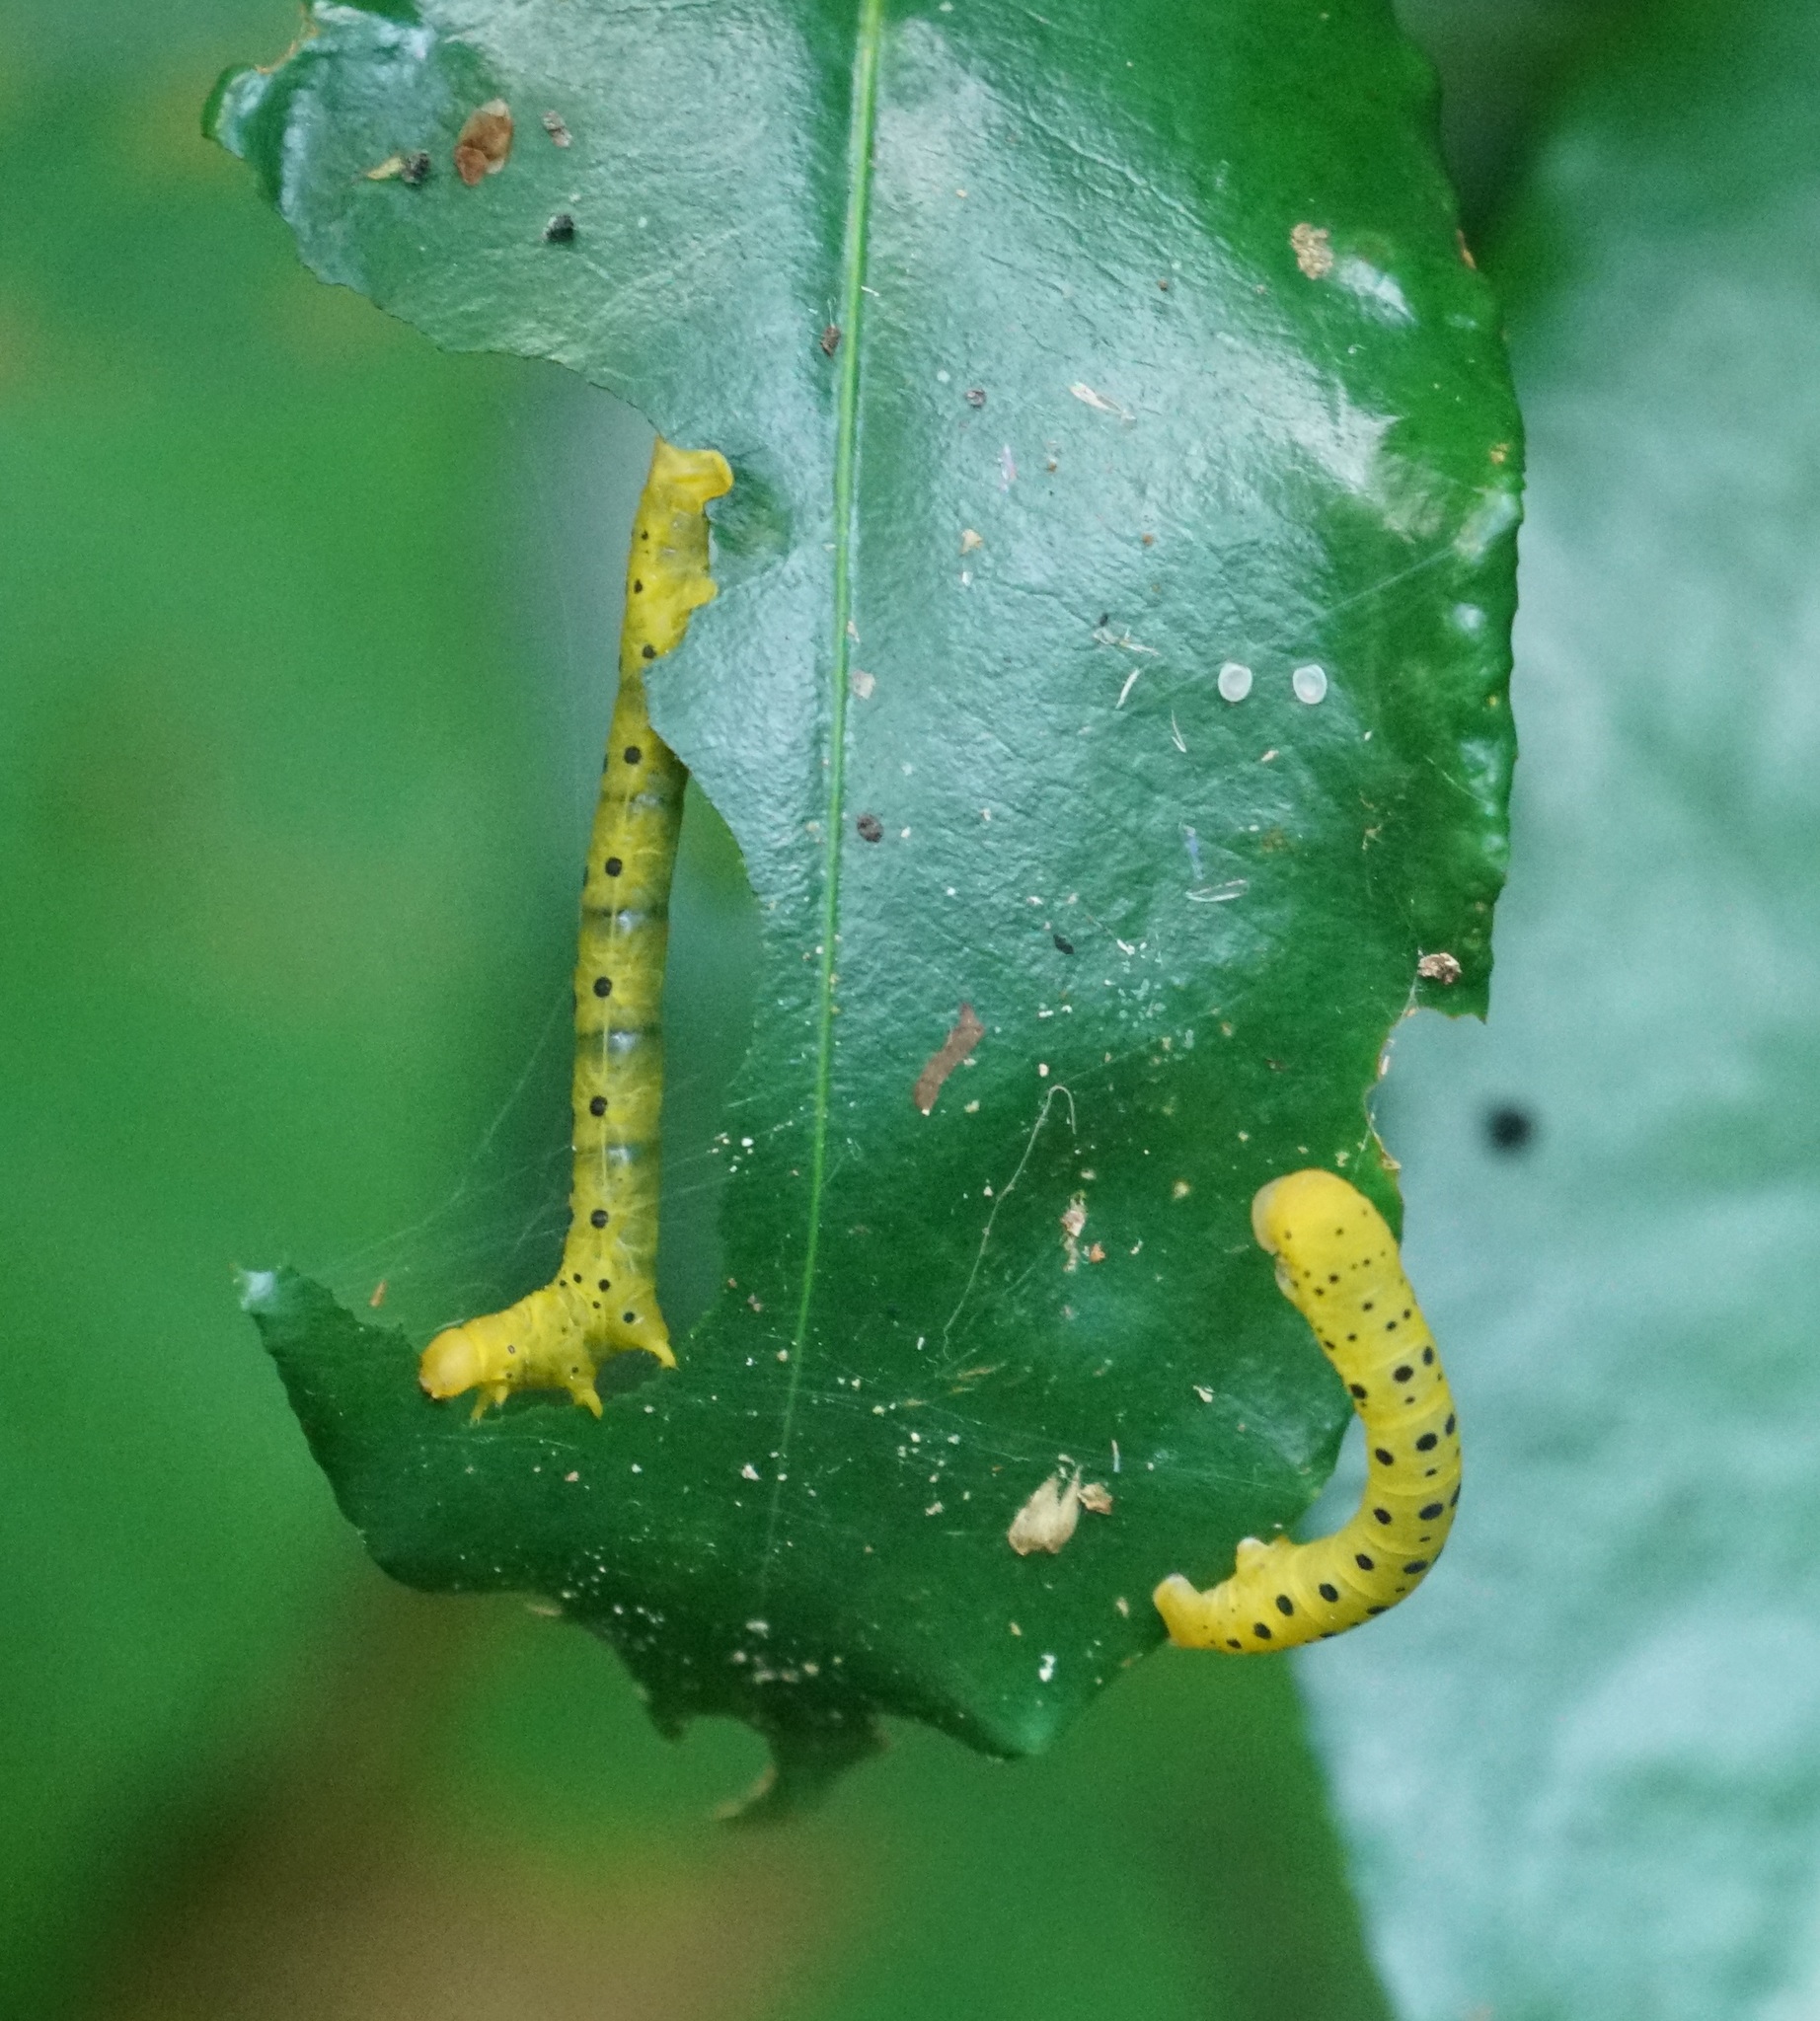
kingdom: Animalia
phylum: Arthropoda
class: Insecta
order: Lepidoptera
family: Geometridae
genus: Dysphania
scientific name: Dysphania numana
